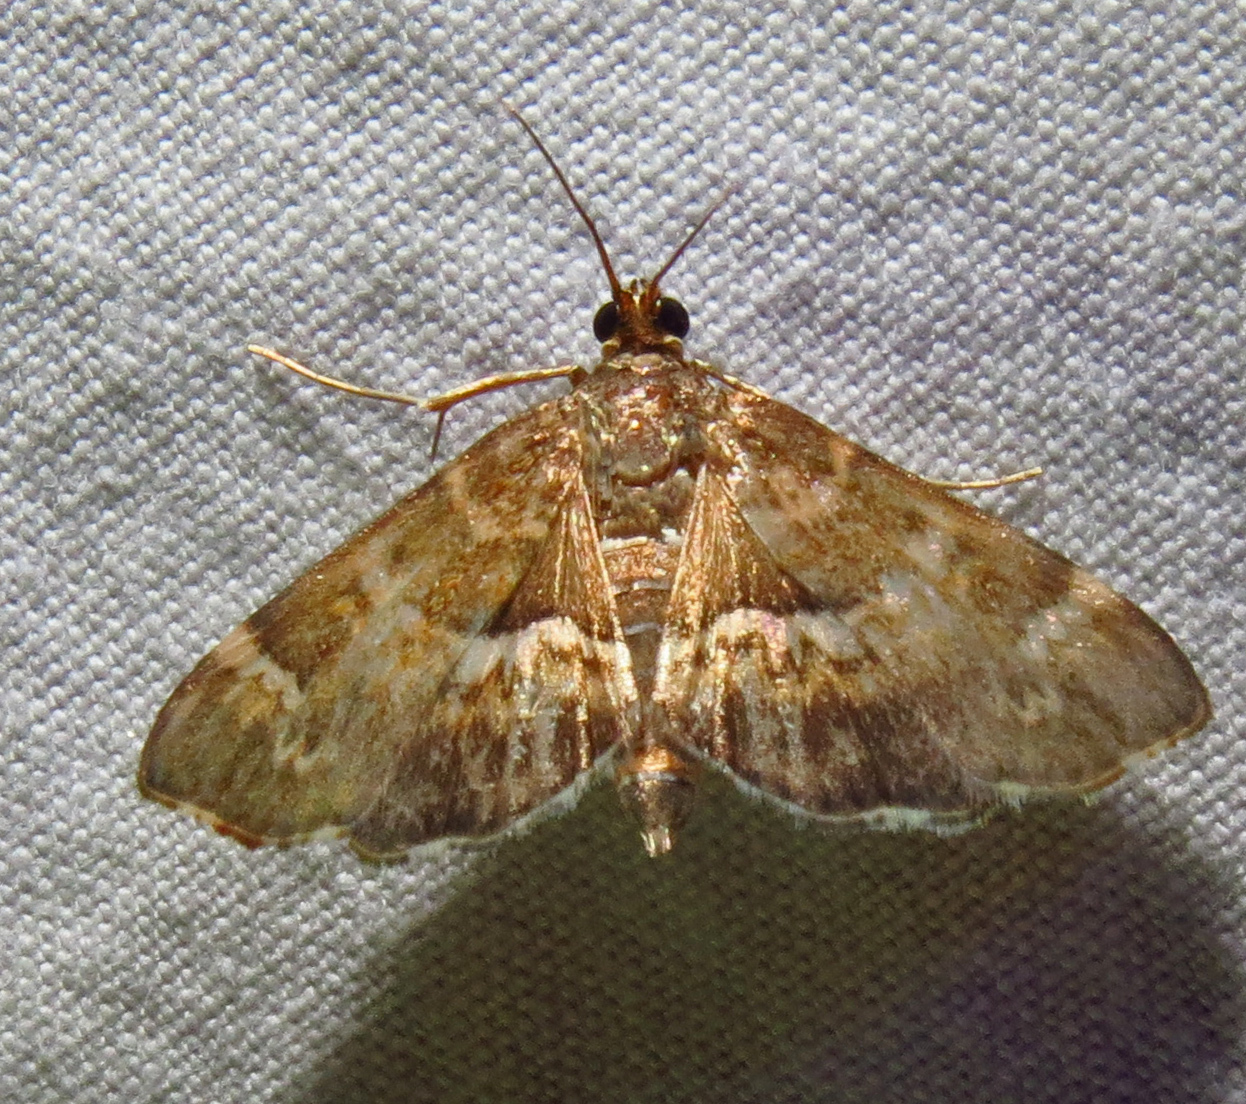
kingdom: Animalia
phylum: Arthropoda
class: Insecta
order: Lepidoptera
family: Crambidae
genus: Hymenia
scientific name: Hymenia perspectalis
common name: Spotted beet webworm
